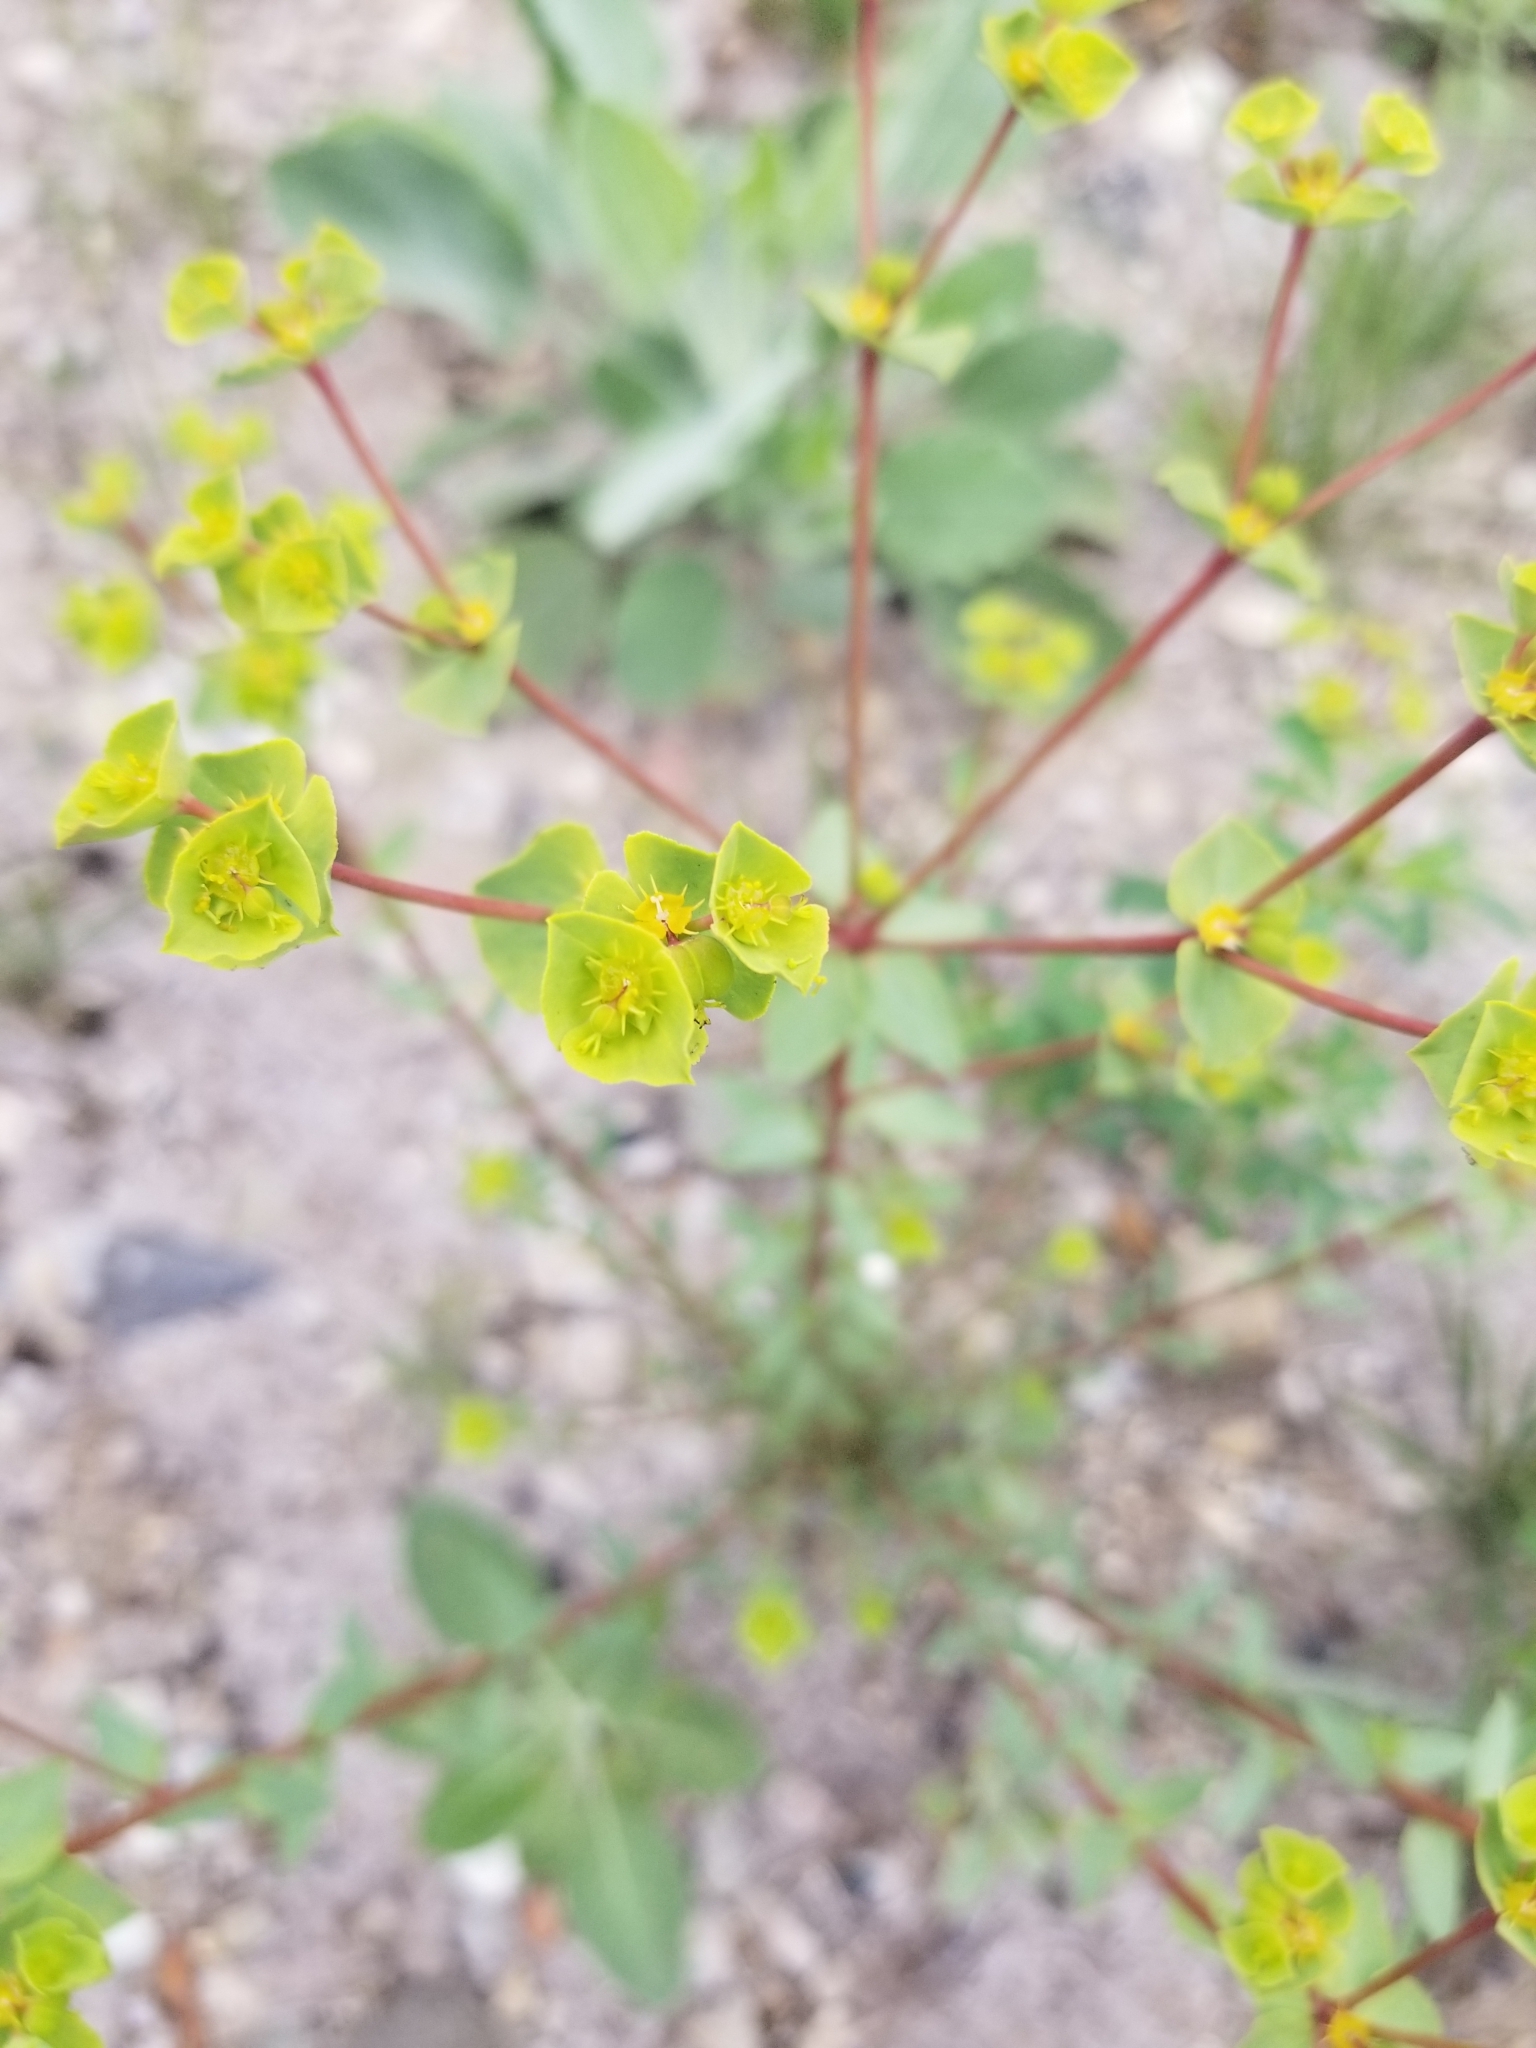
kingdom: Plantae
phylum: Tracheophyta
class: Magnoliopsida
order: Malpighiales
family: Euphorbiaceae
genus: Euphorbia
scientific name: Euphorbia terracina
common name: Geraldton carnation weed
